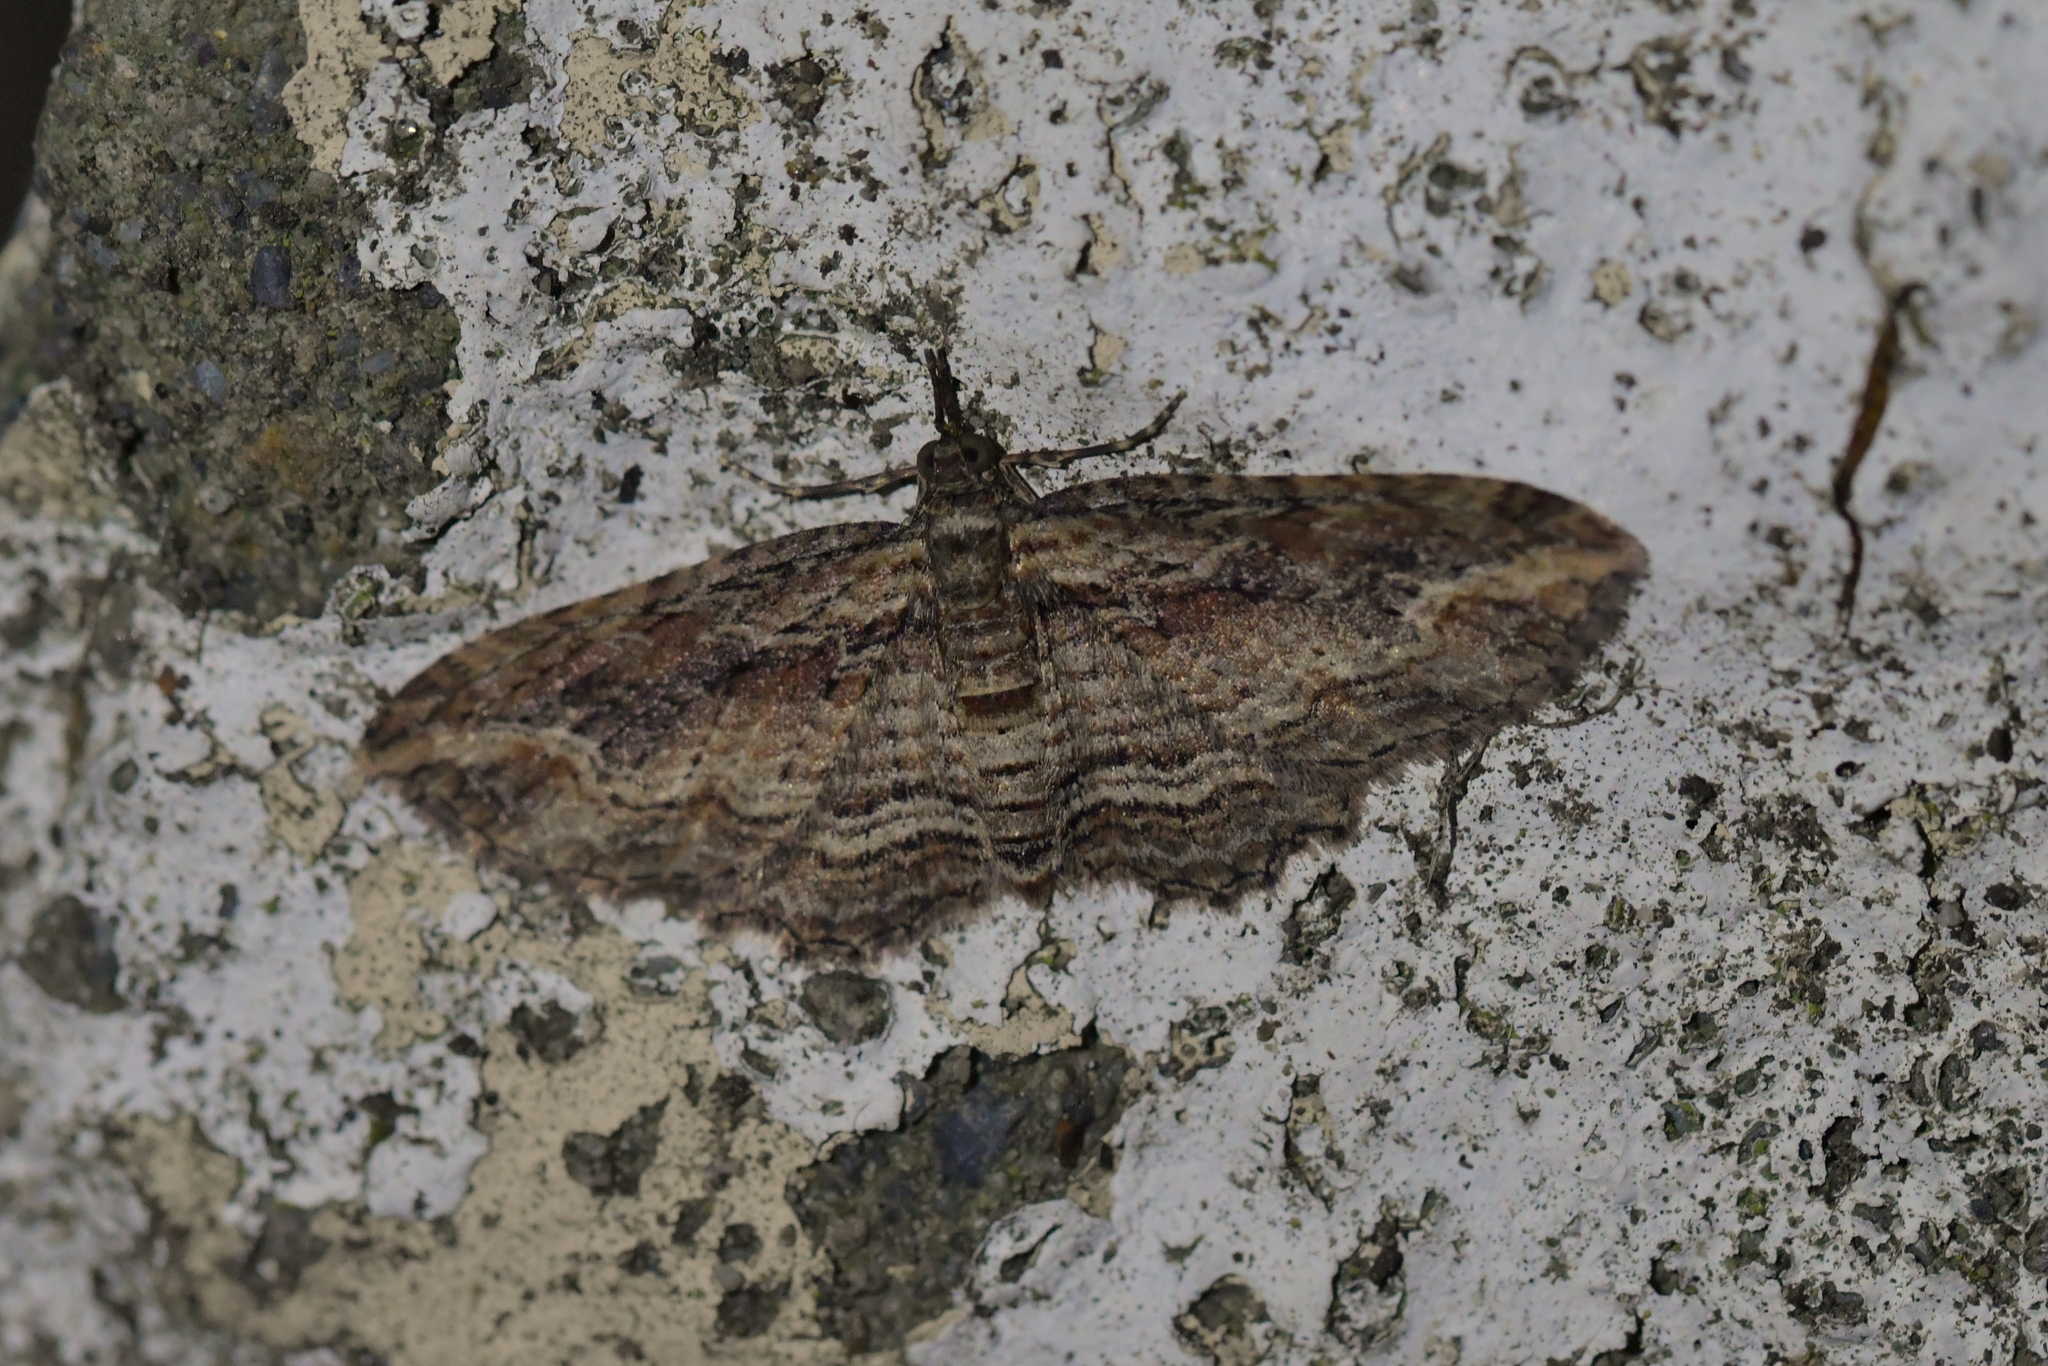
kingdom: Animalia
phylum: Arthropoda
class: Insecta
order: Lepidoptera
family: Geometridae
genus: Chloroclystis
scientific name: Chloroclystis filata
